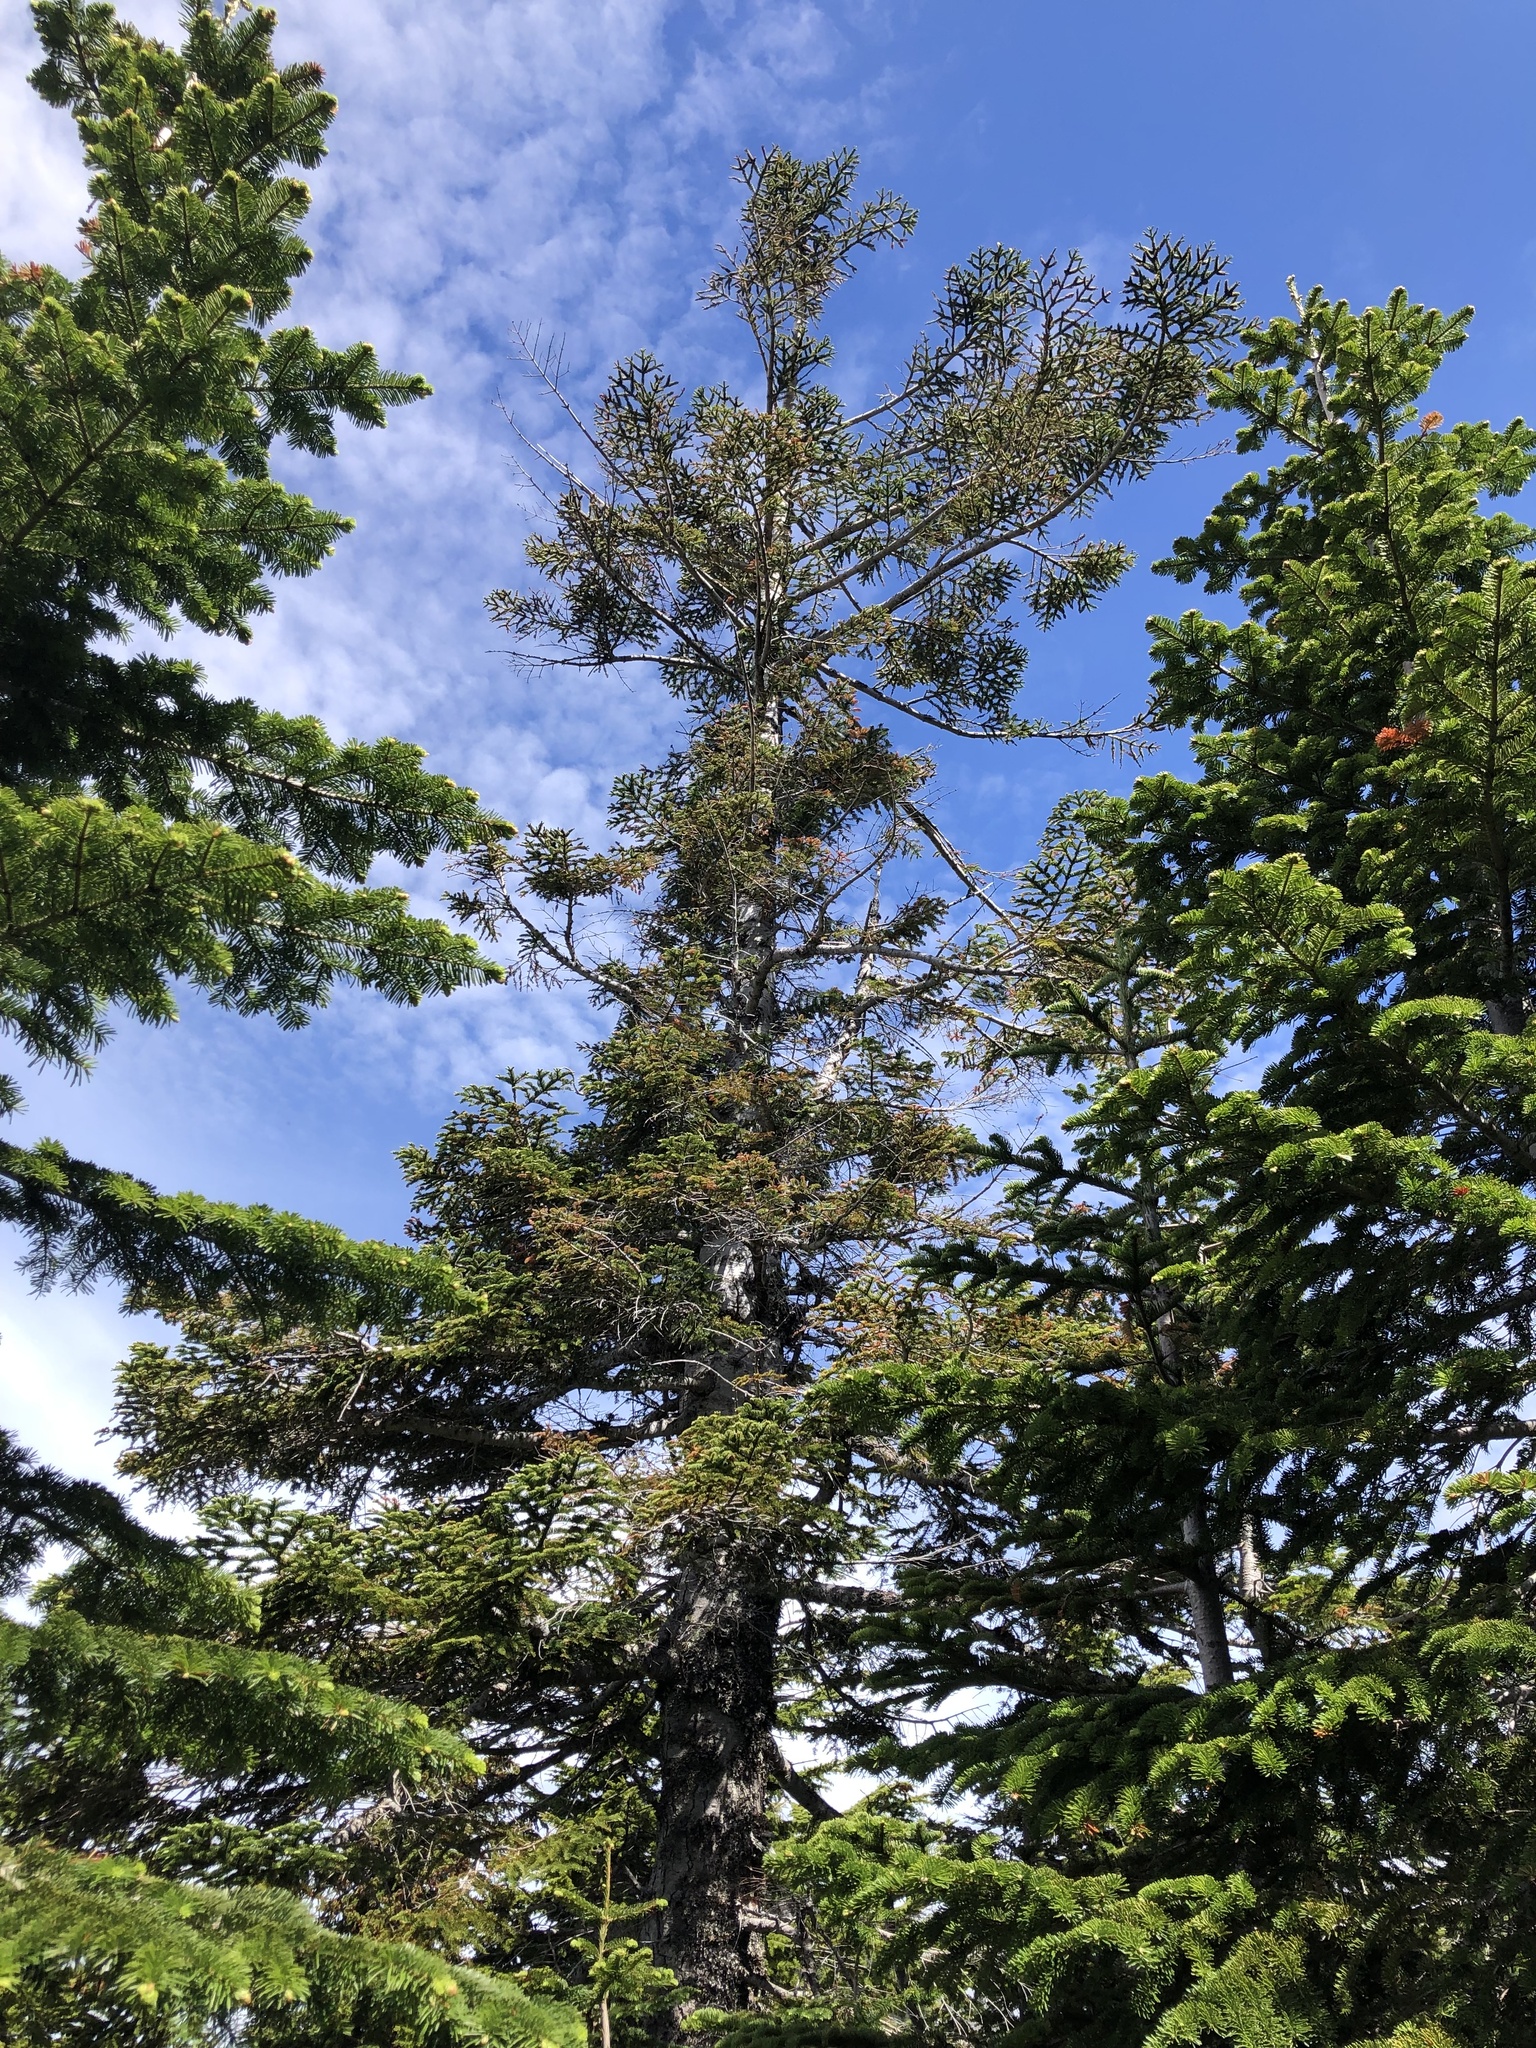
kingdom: Plantae
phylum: Tracheophyta
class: Pinopsida
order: Pinales
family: Pinaceae
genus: Abies
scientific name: Abies procera
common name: Noble fir
